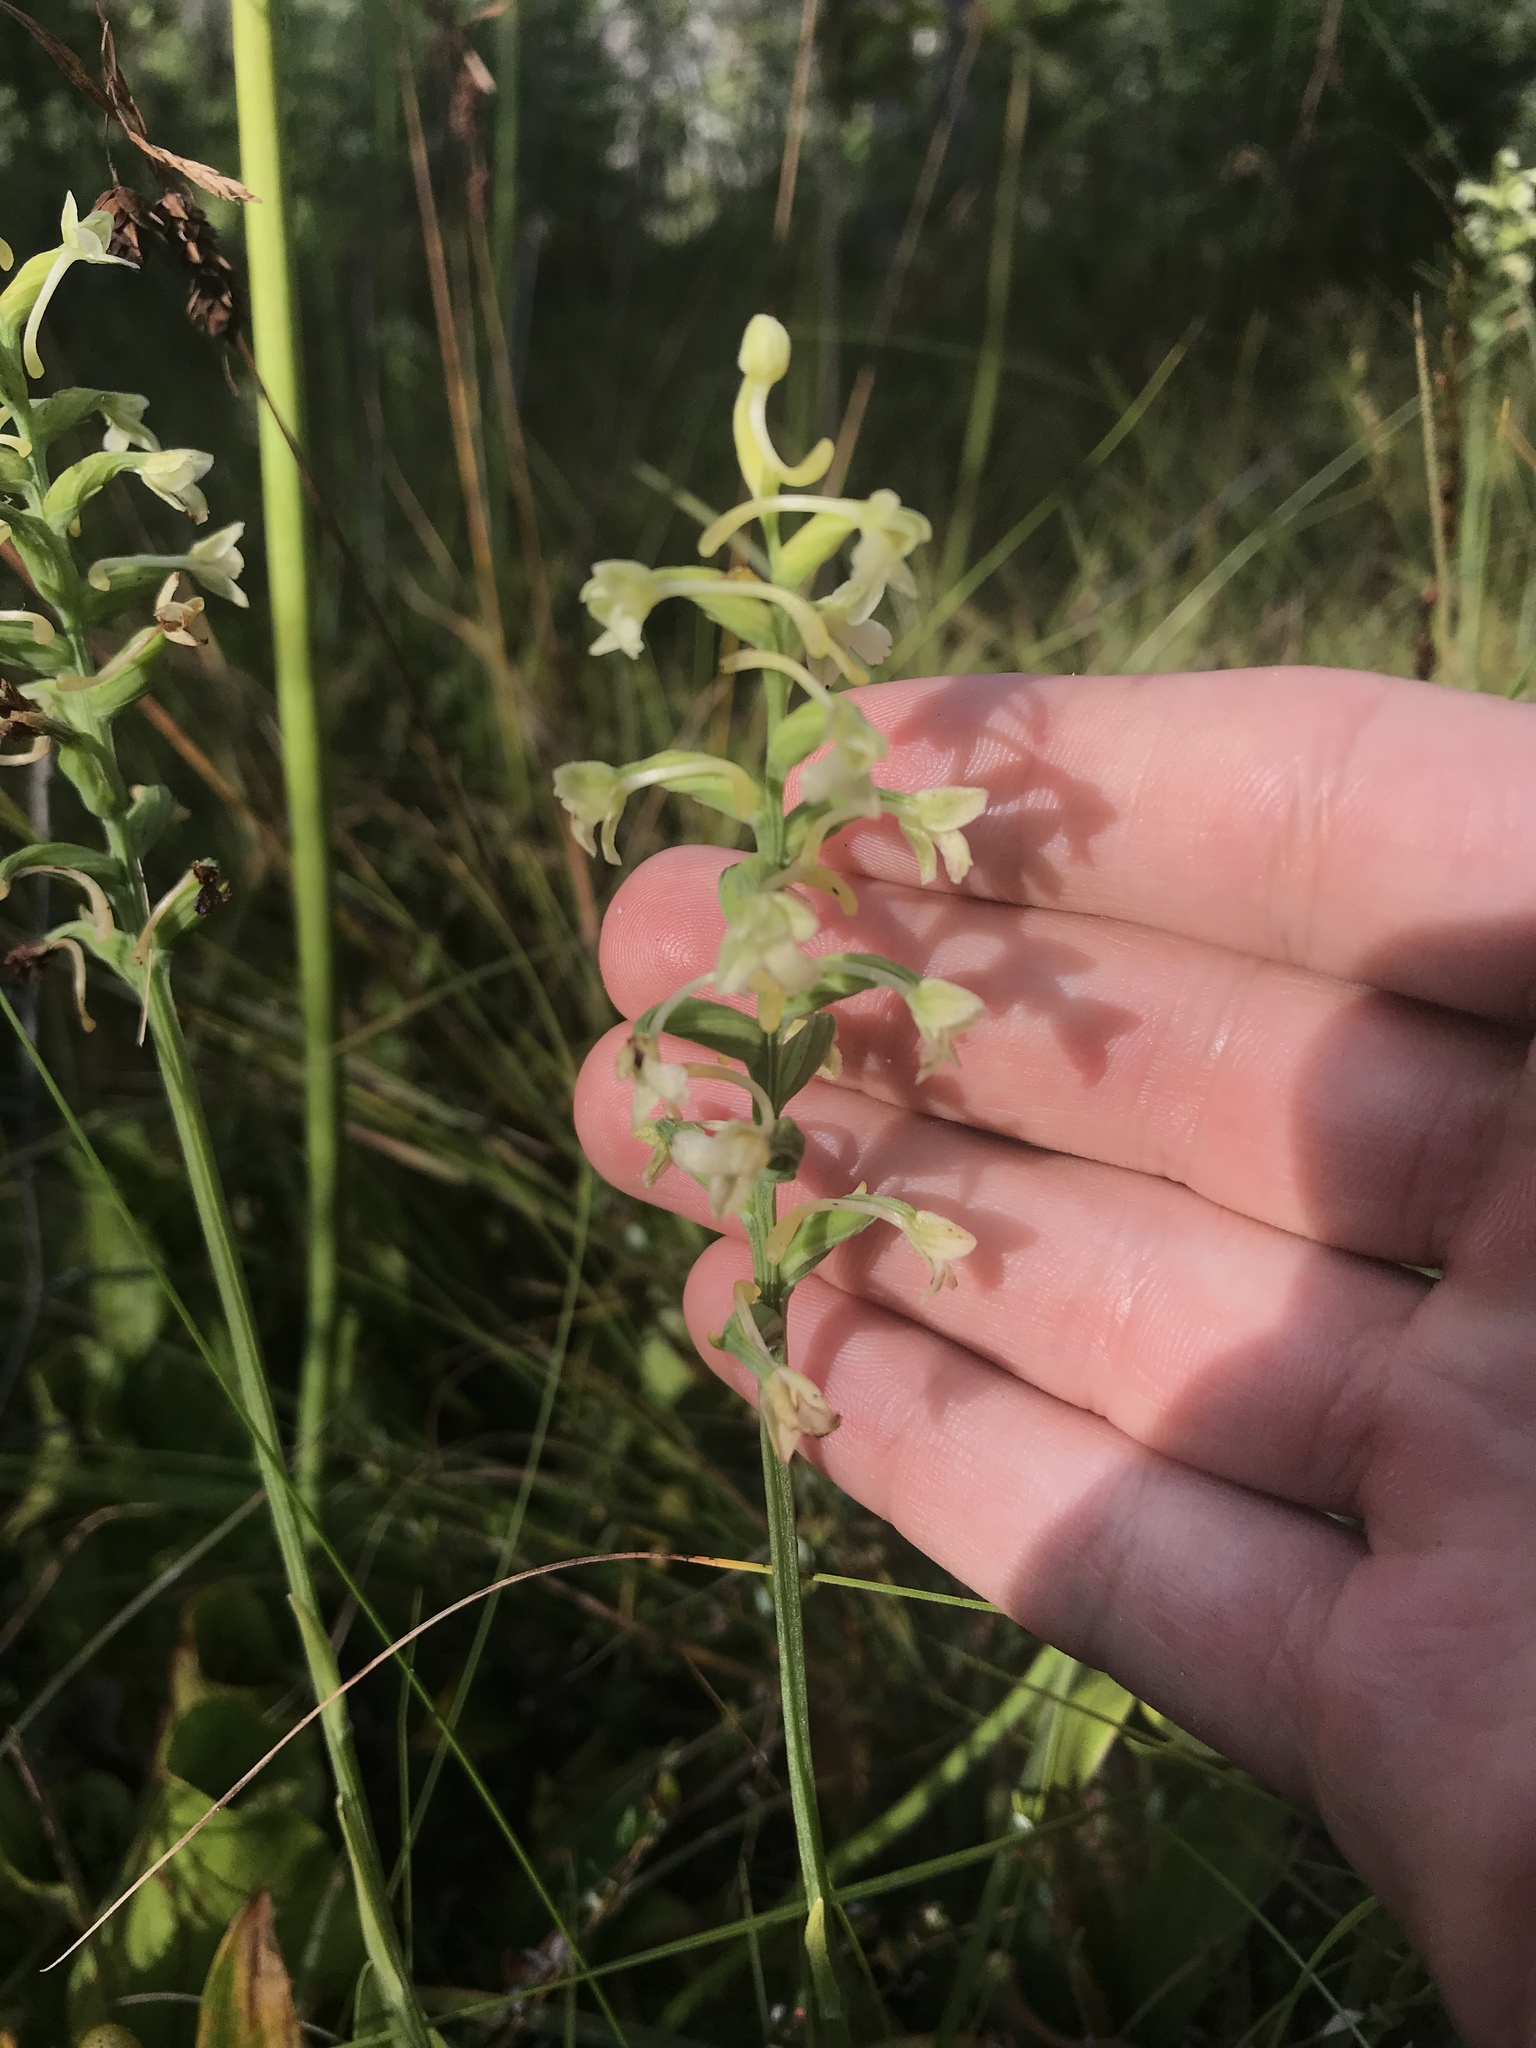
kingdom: Plantae
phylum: Tracheophyta
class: Liliopsida
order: Asparagales
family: Orchidaceae
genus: Platanthera
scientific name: Platanthera clavellata
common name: Club-spur orchid
